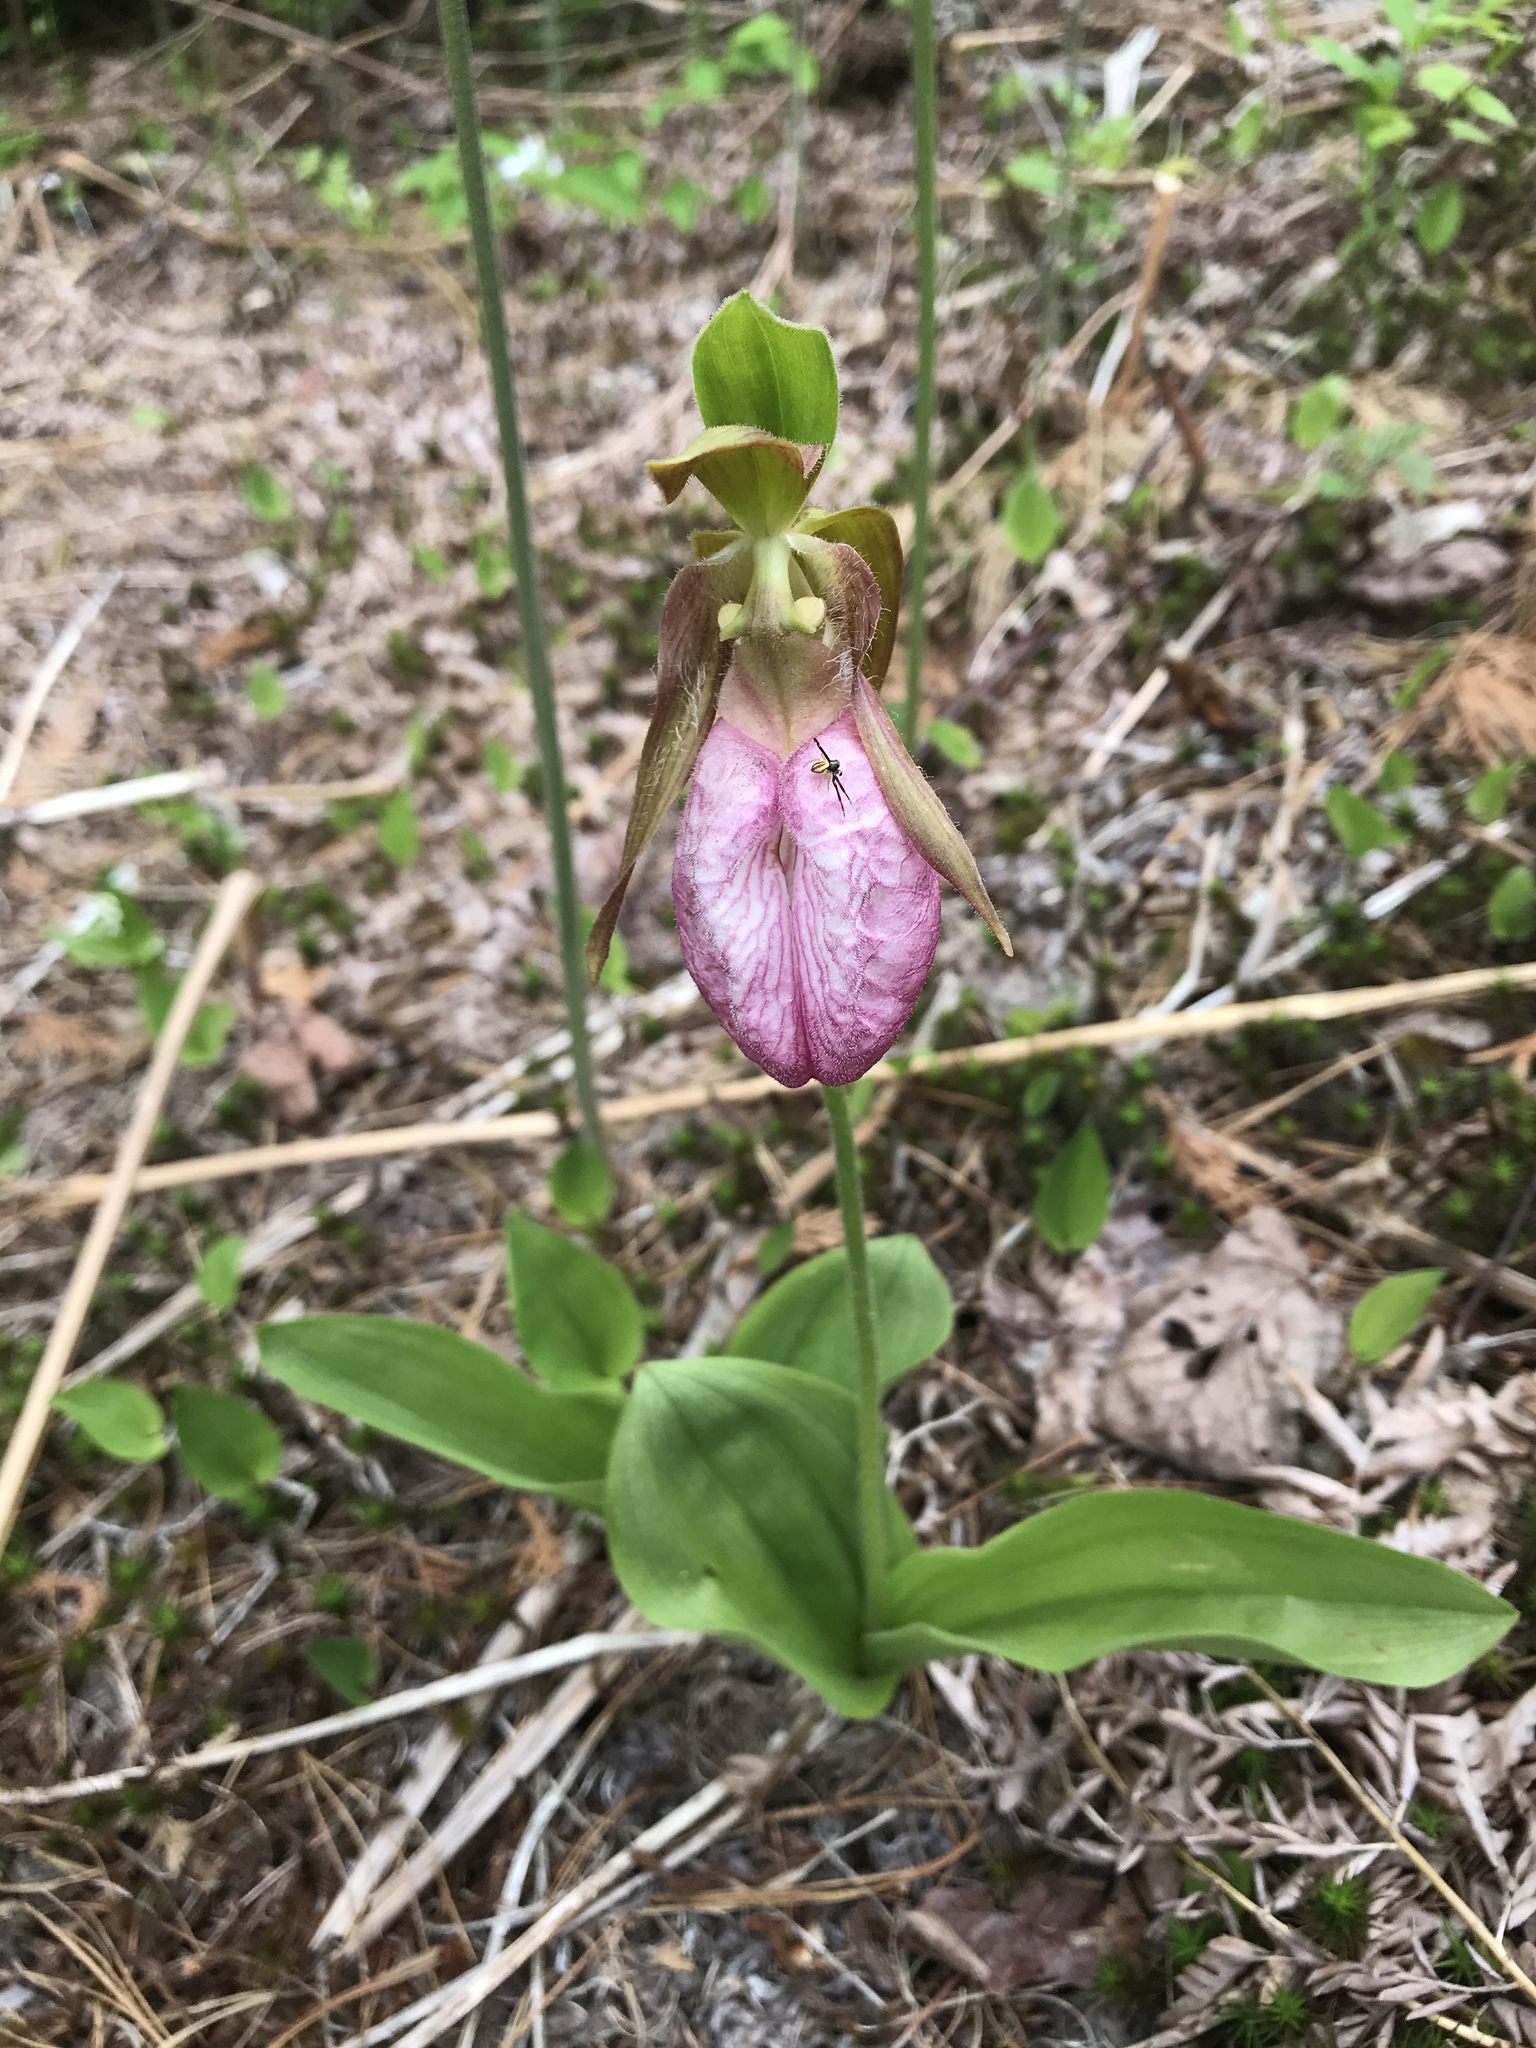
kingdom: Plantae
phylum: Tracheophyta
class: Liliopsida
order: Asparagales
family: Orchidaceae
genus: Cypripedium
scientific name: Cypripedium acaule
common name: Pink lady's-slipper
